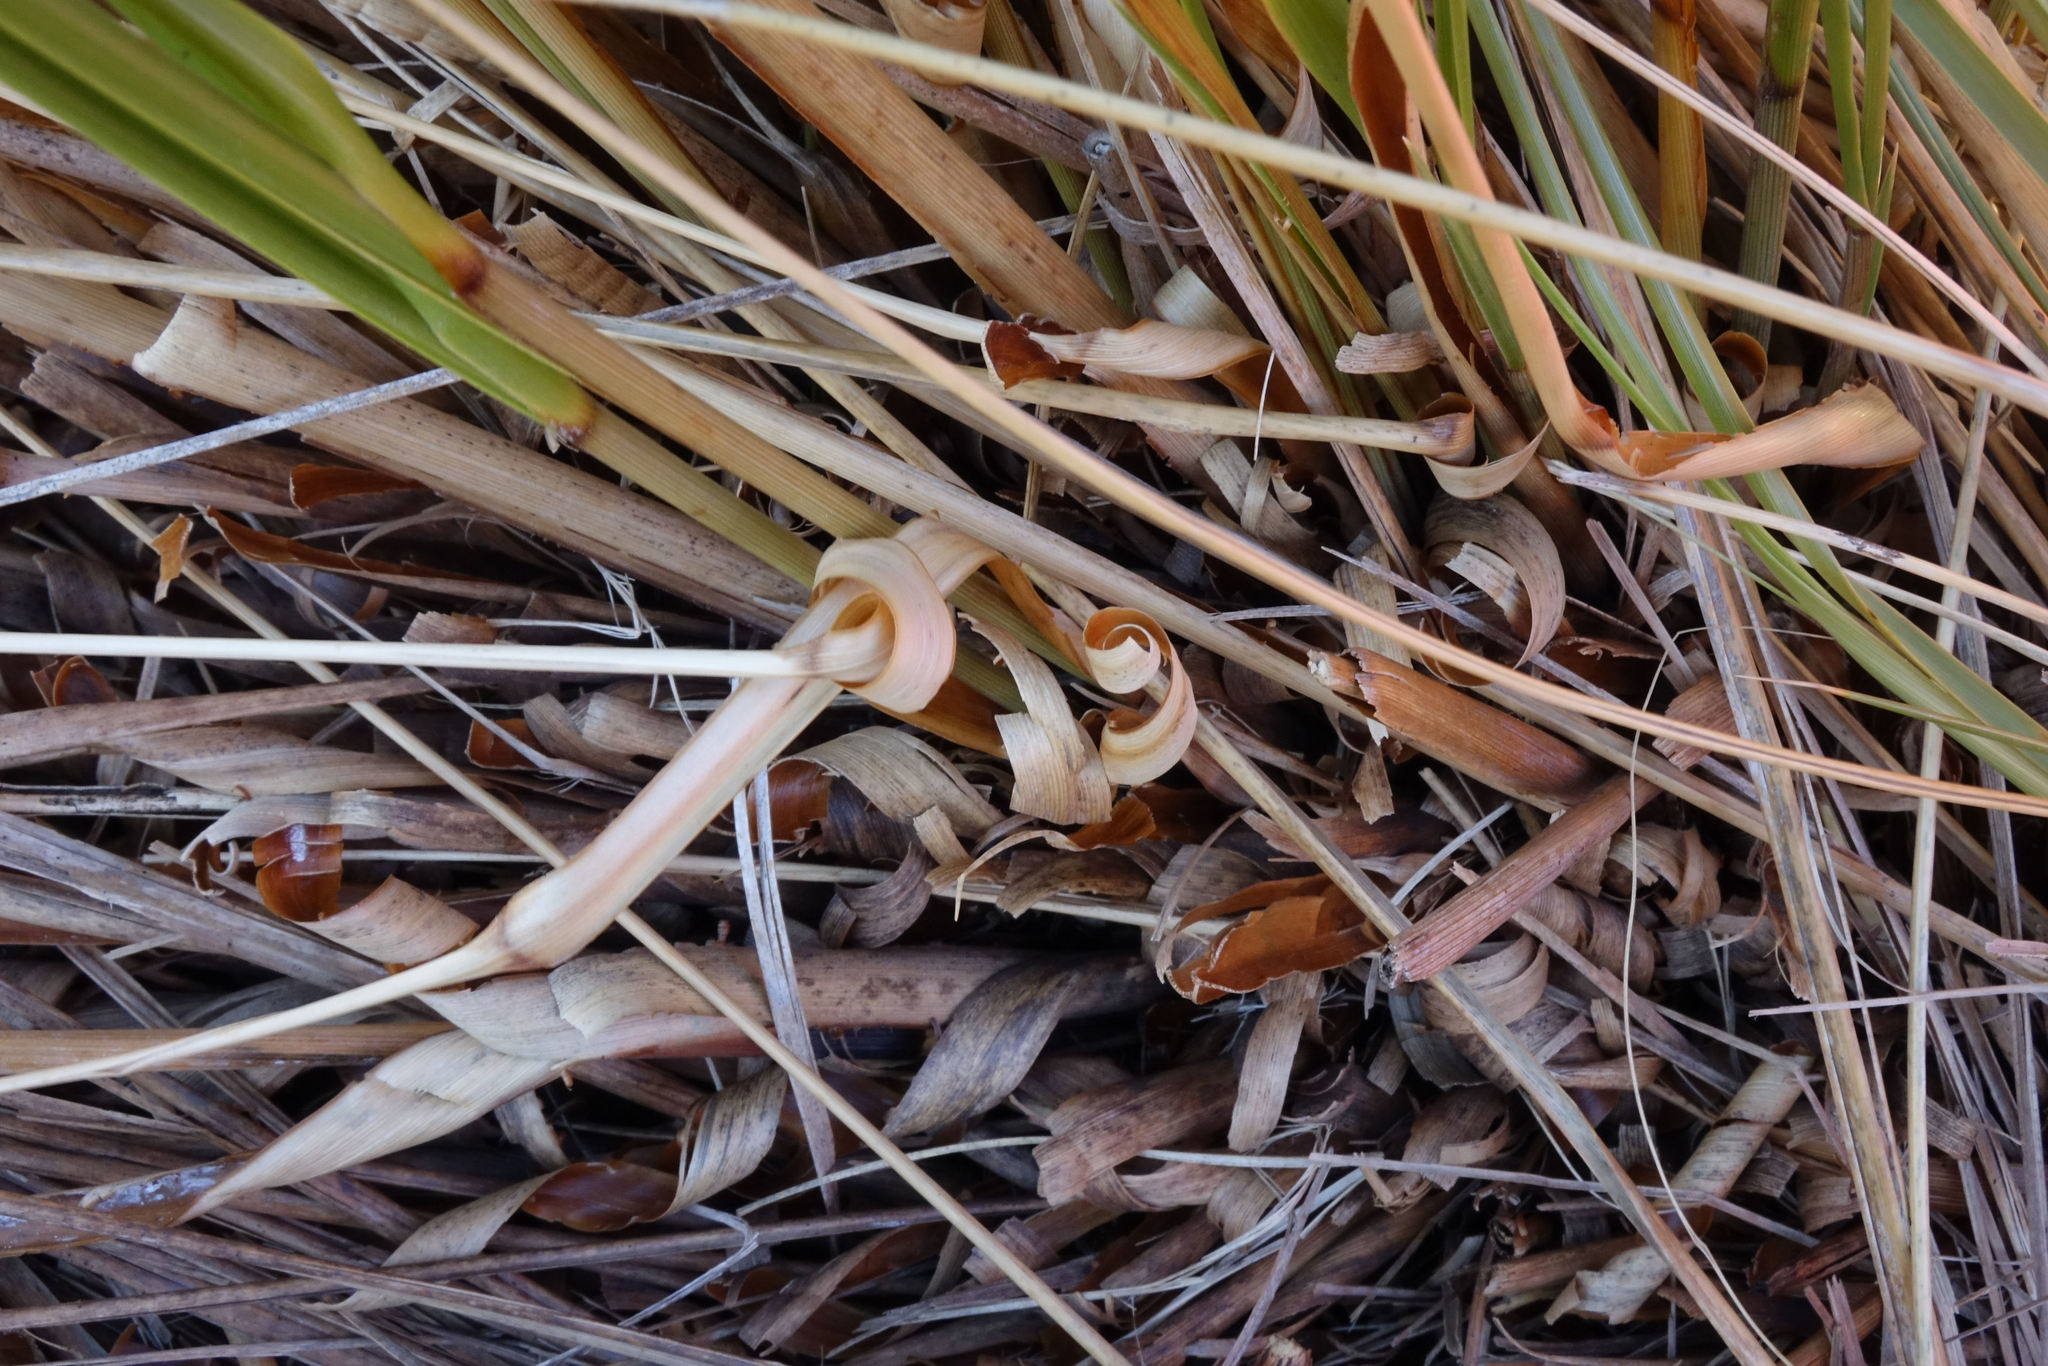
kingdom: Plantae
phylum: Tracheophyta
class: Liliopsida
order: Poales
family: Poaceae
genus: Chionochloa
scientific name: Chionochloa rigida
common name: Narrow leaved snow tussock
